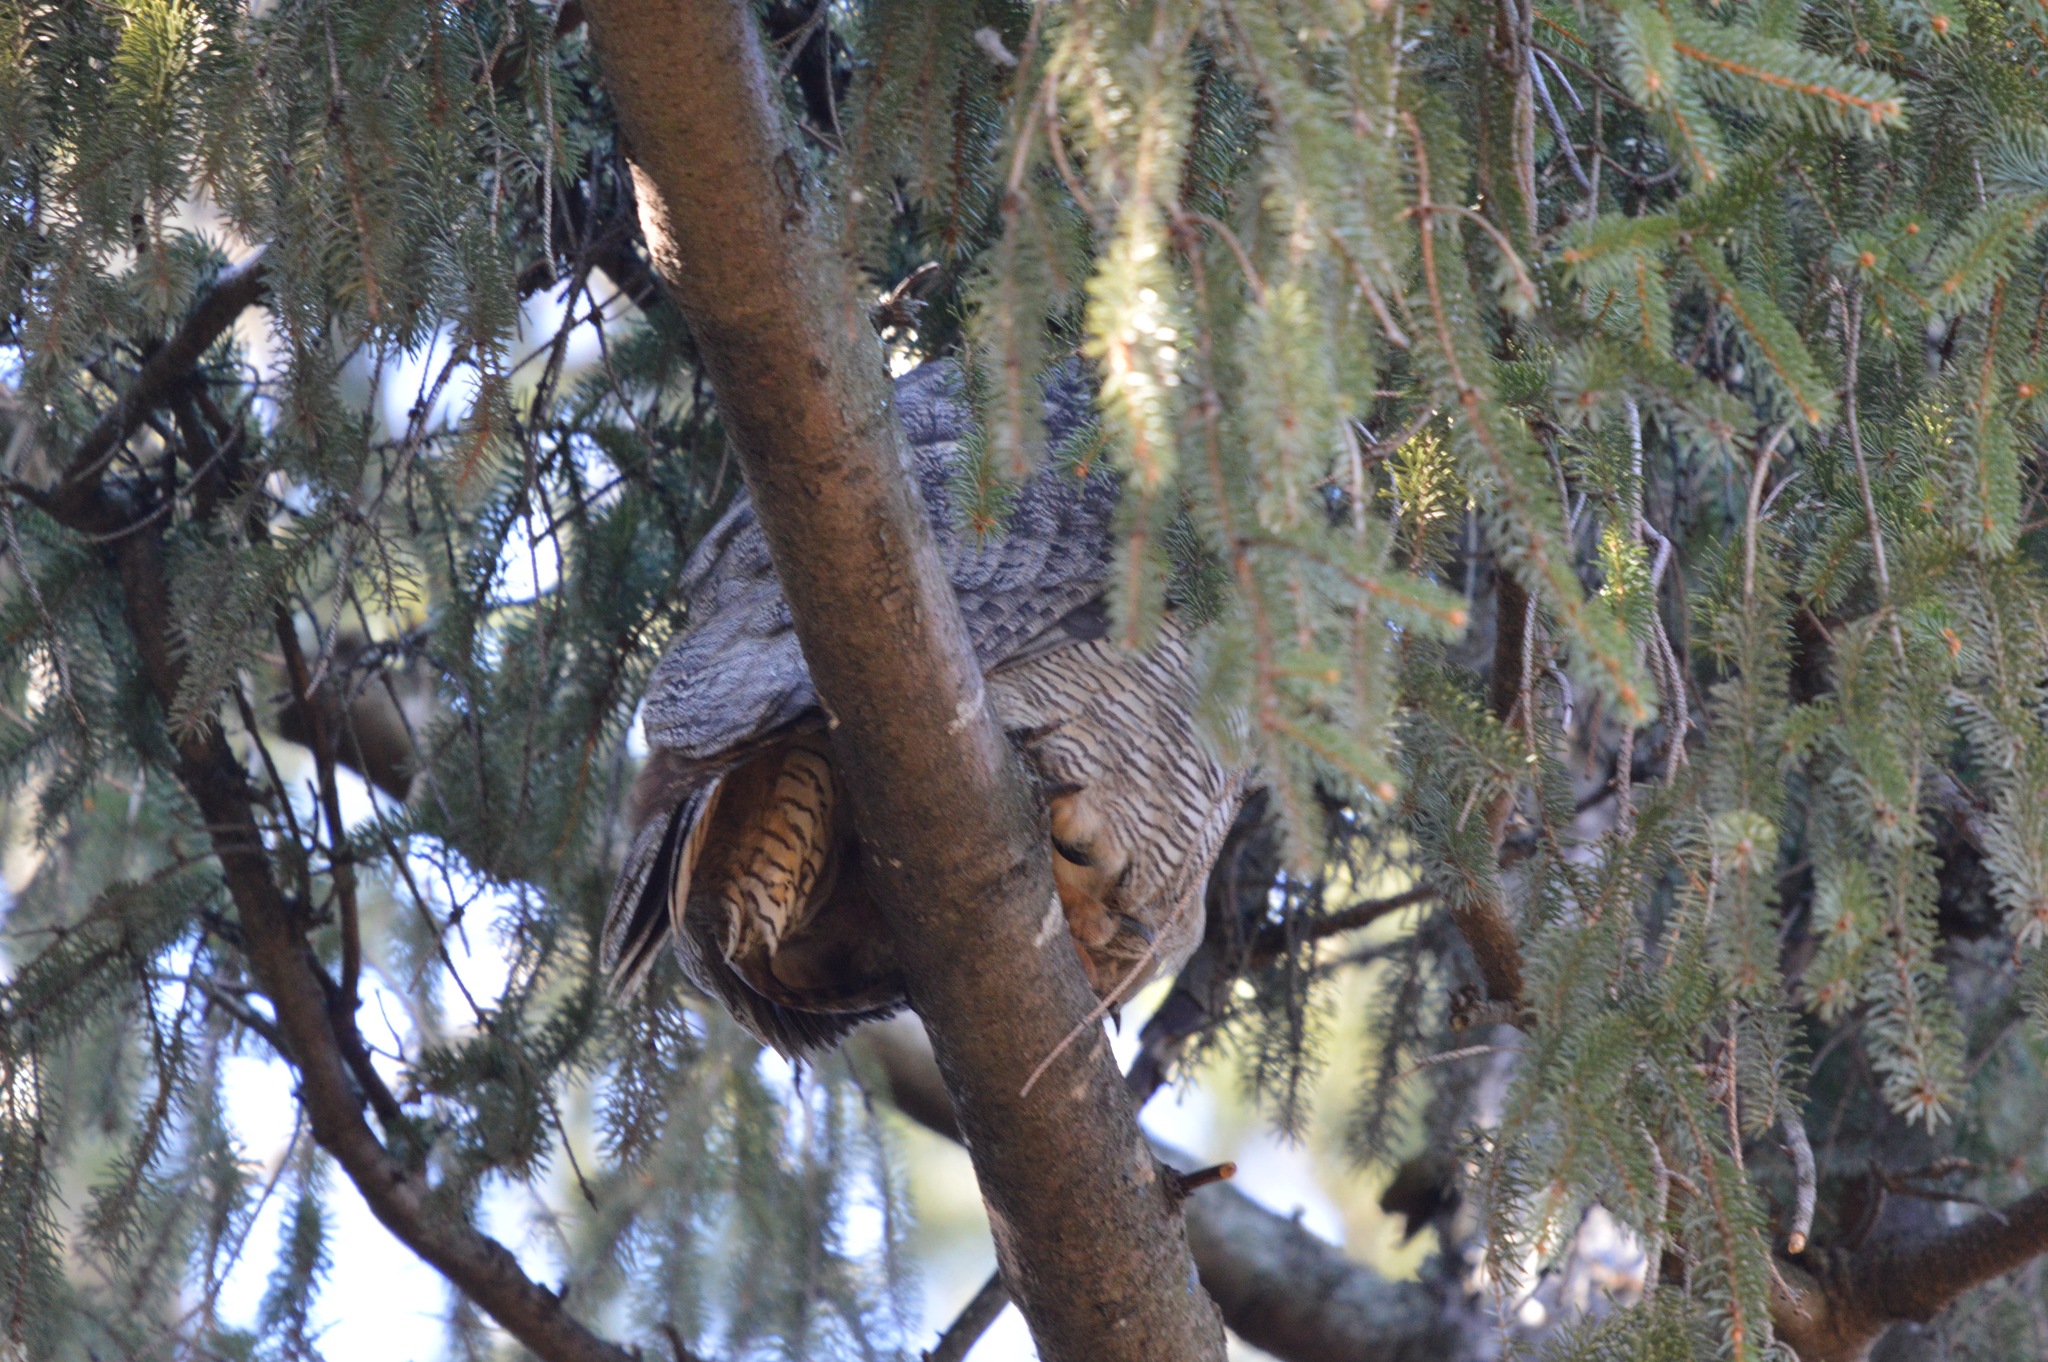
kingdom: Animalia
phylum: Chordata
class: Aves
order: Strigiformes
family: Strigidae
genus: Bubo
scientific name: Bubo virginianus
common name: Great horned owl
